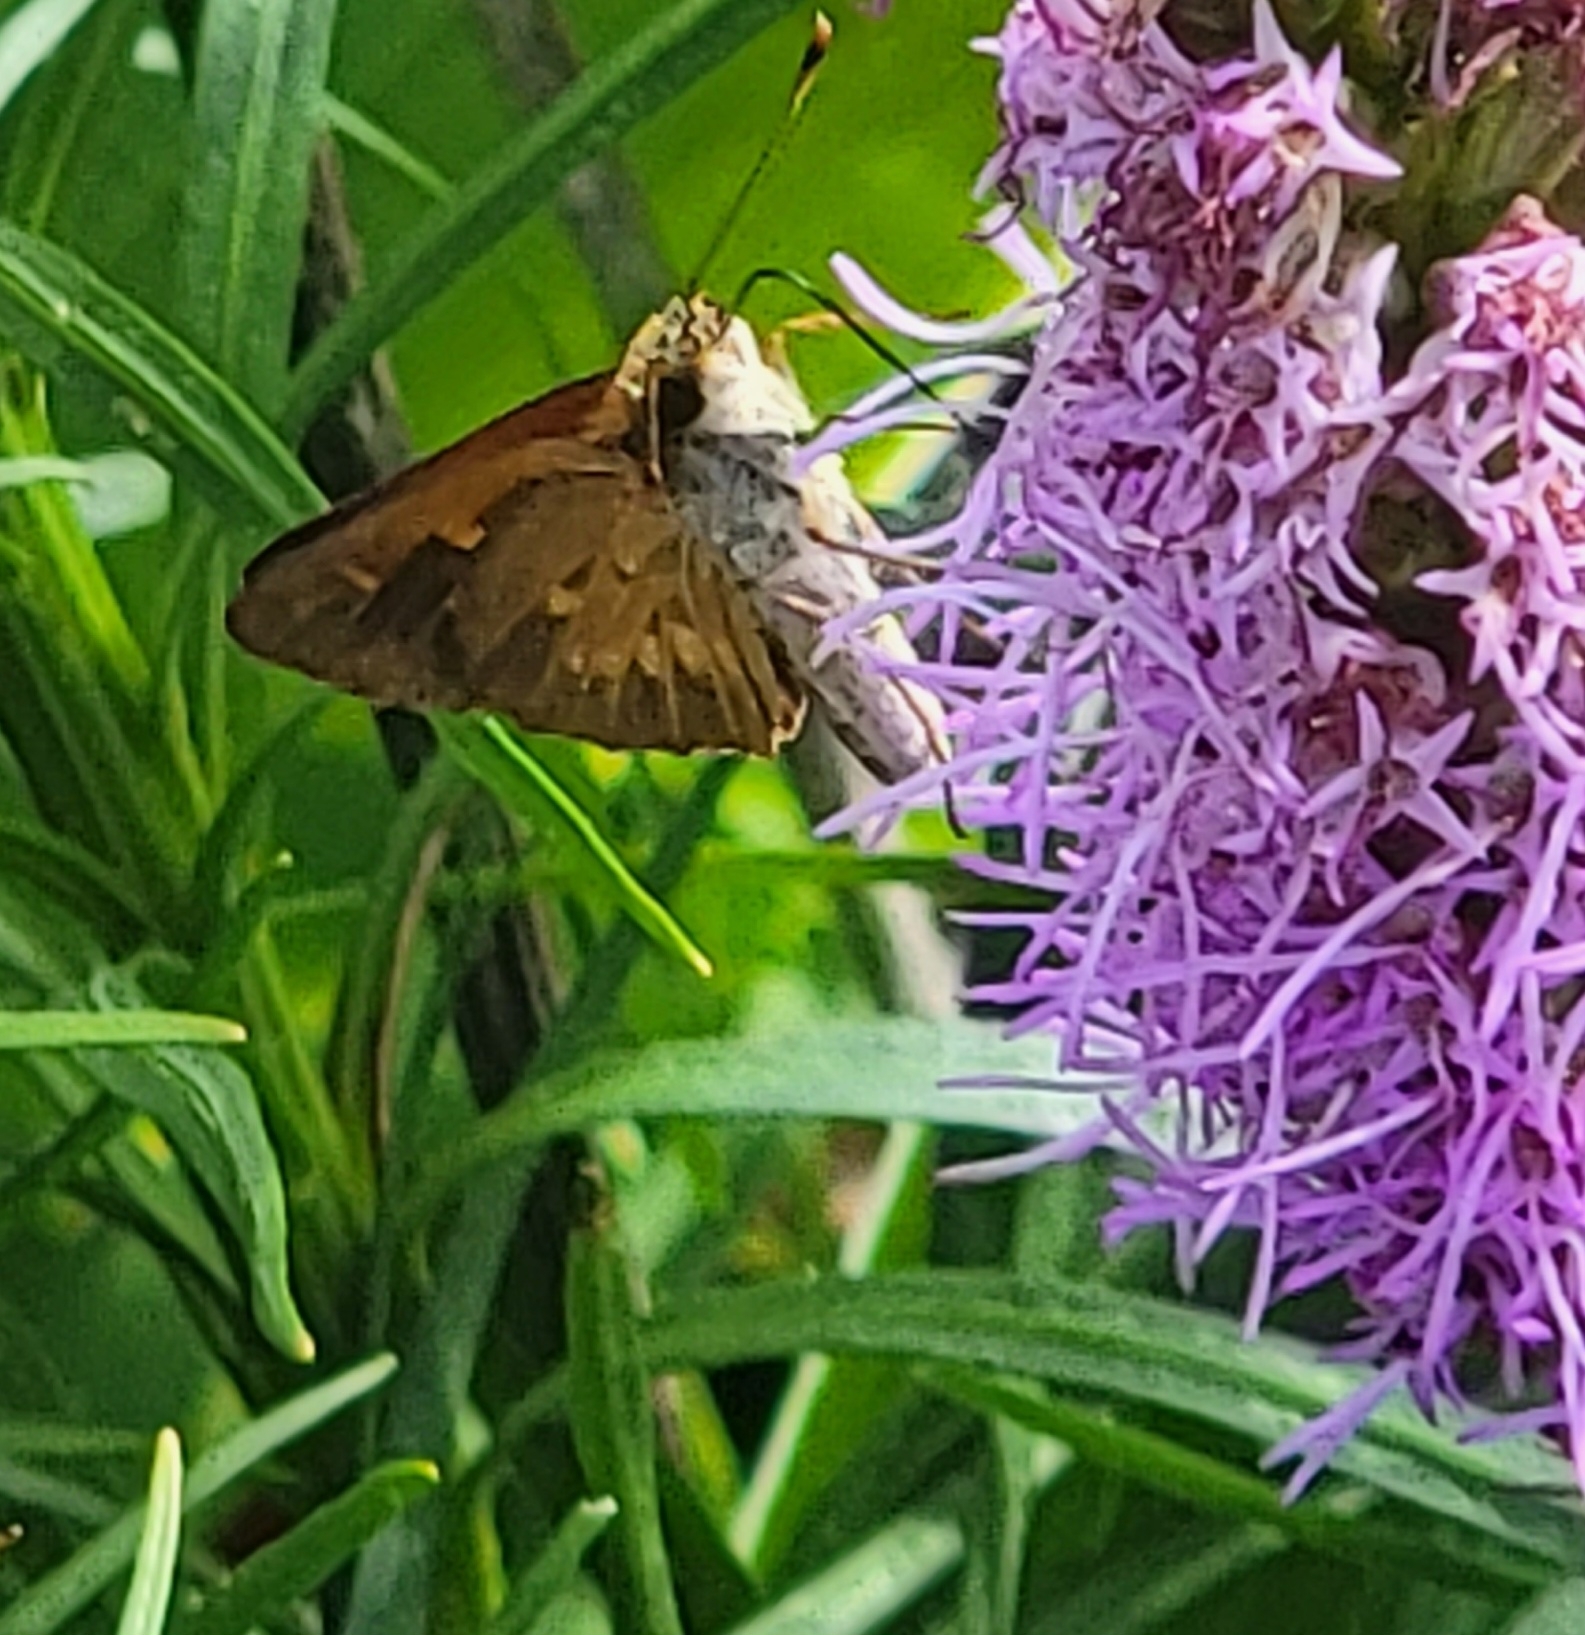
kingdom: Animalia
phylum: Arthropoda
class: Insecta
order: Lepidoptera
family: Hesperiidae
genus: Poanes
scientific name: Poanes viator
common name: Broad-winged skipper
